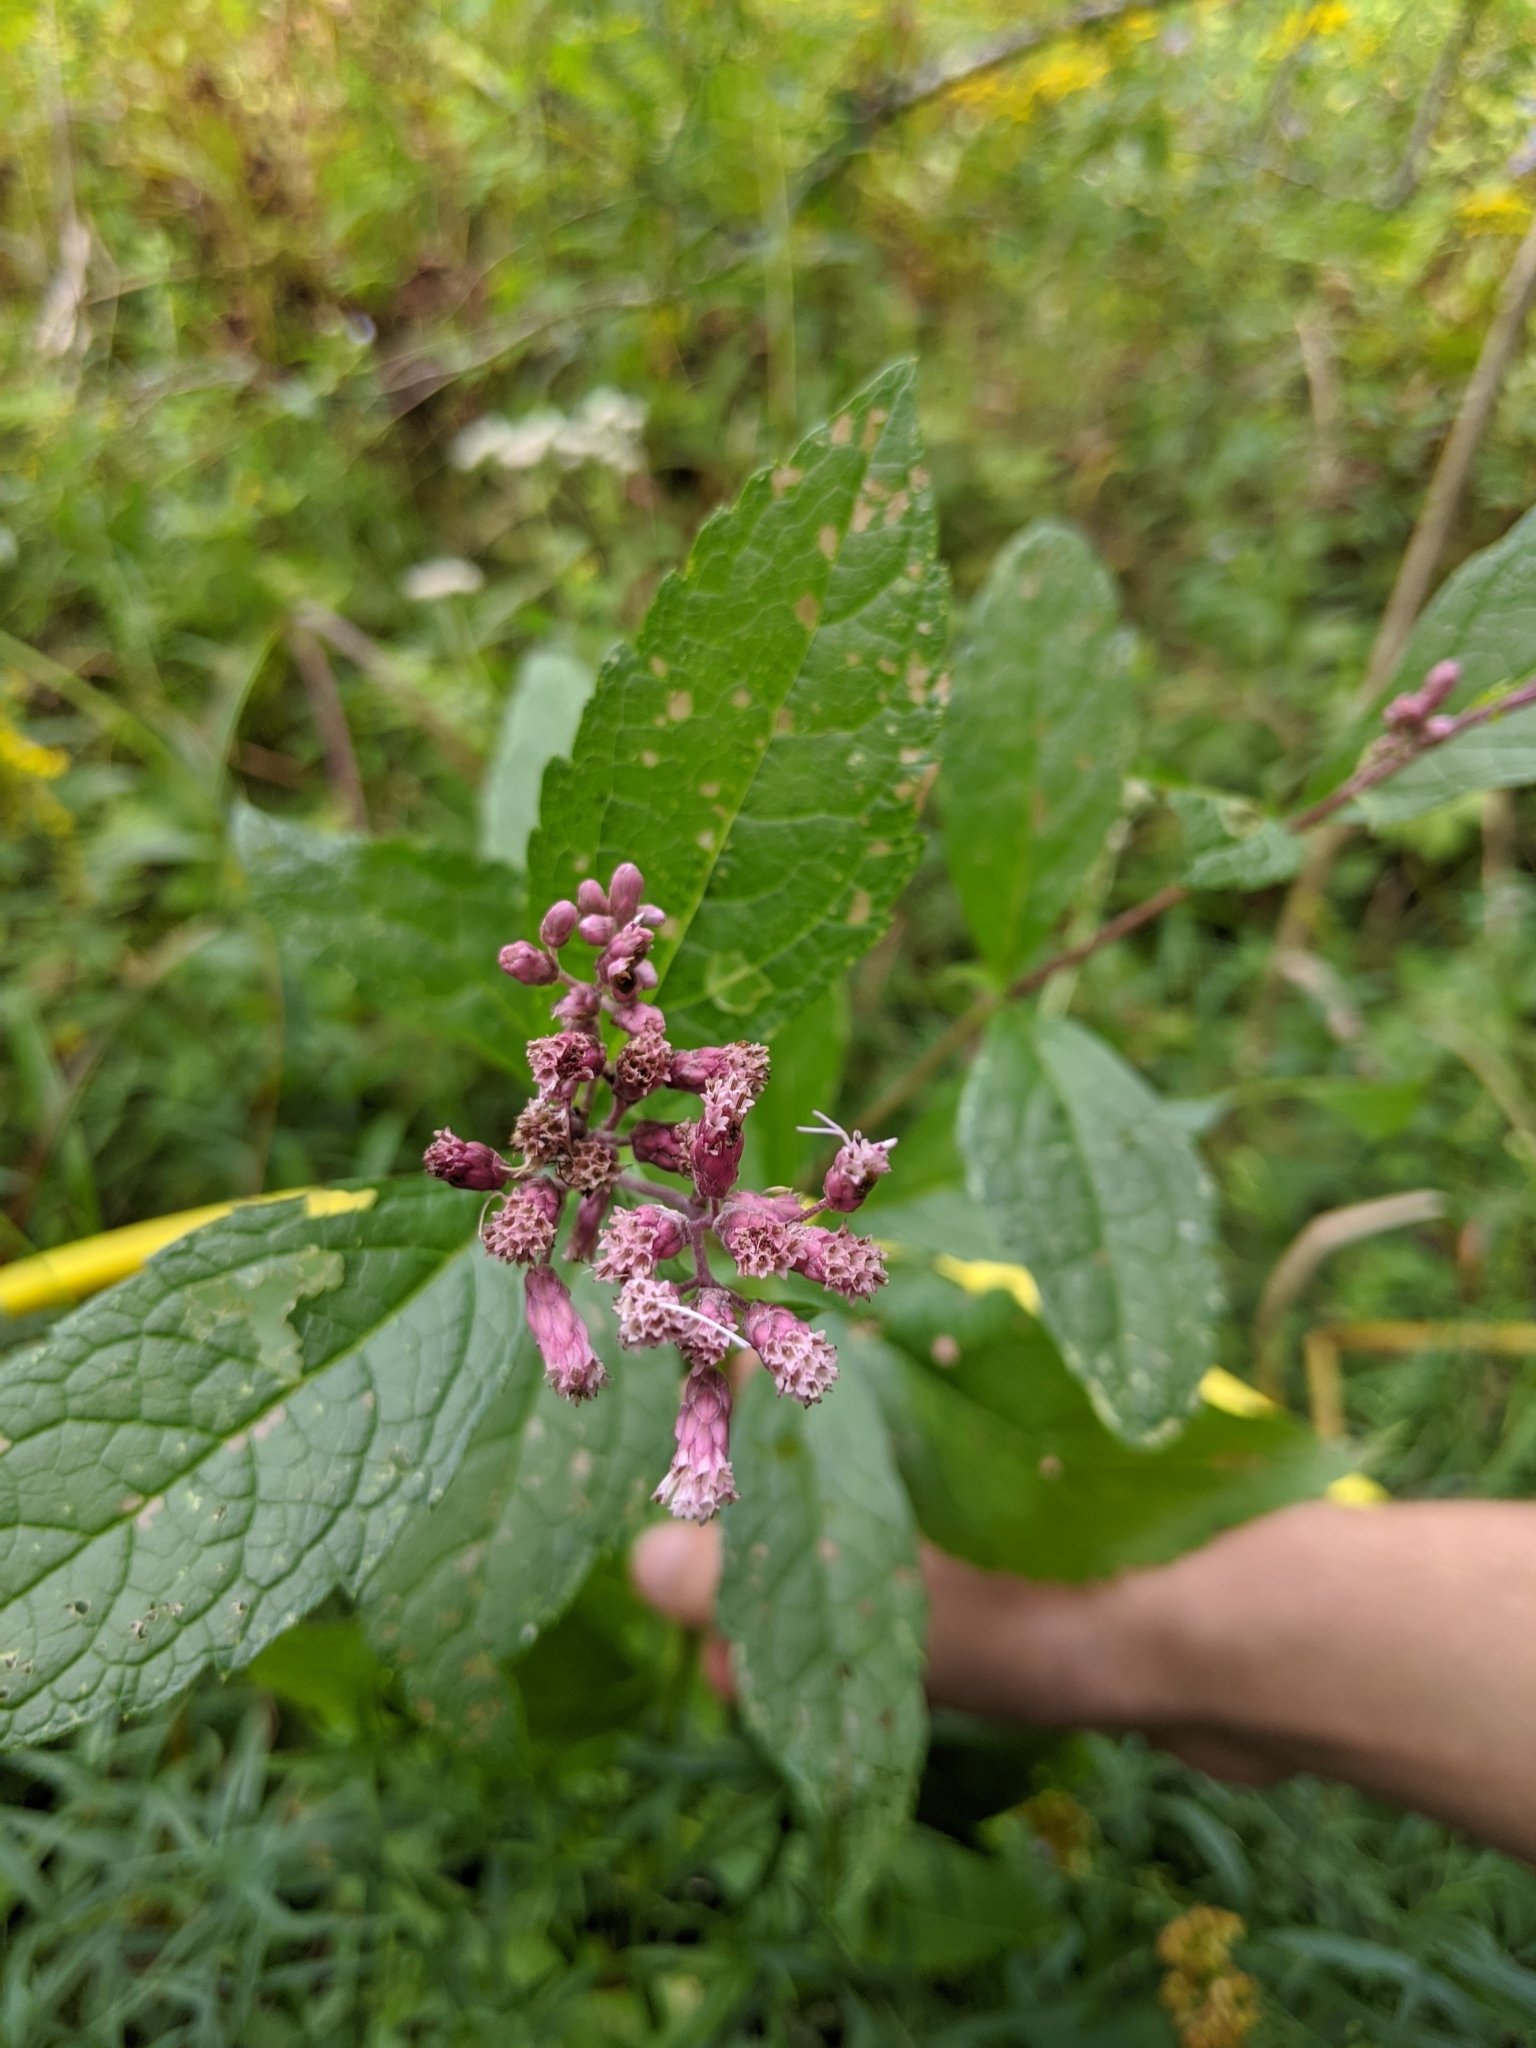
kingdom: Plantae
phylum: Tracheophyta
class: Magnoliopsida
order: Asterales
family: Asteraceae
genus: Eutrochium
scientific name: Eutrochium maculatum
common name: Spotted joe pye weed
